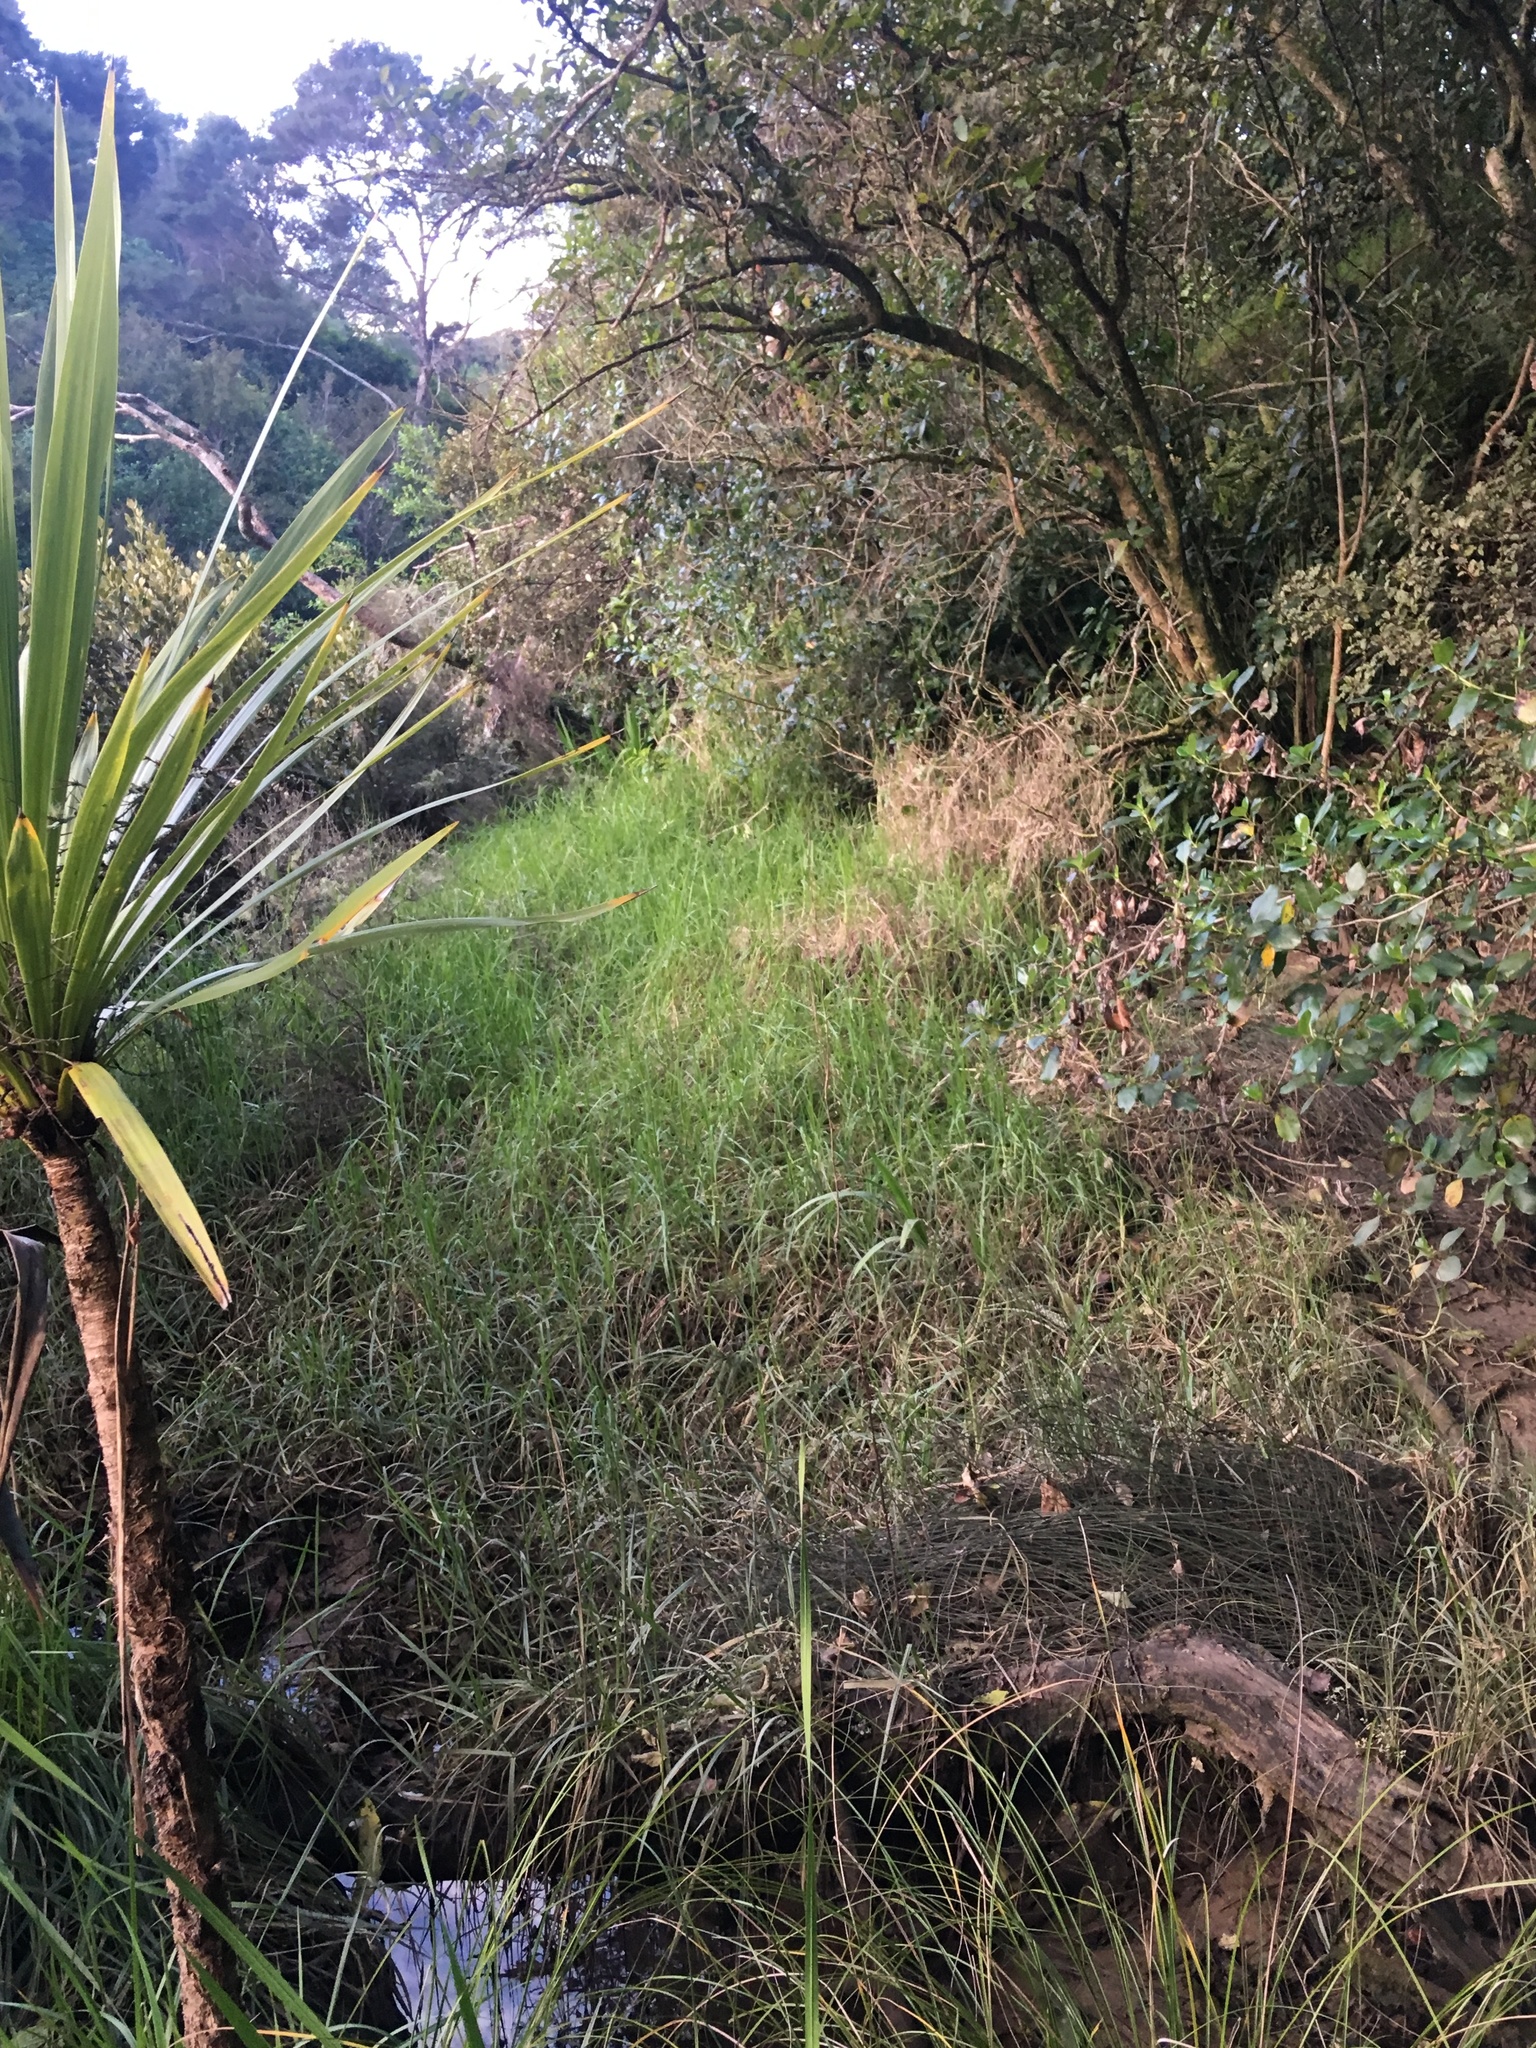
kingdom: Plantae
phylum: Tracheophyta
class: Liliopsida
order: Poales
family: Poaceae
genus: Cenchrus
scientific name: Cenchrus clandestinus
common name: Kikuyugrass
